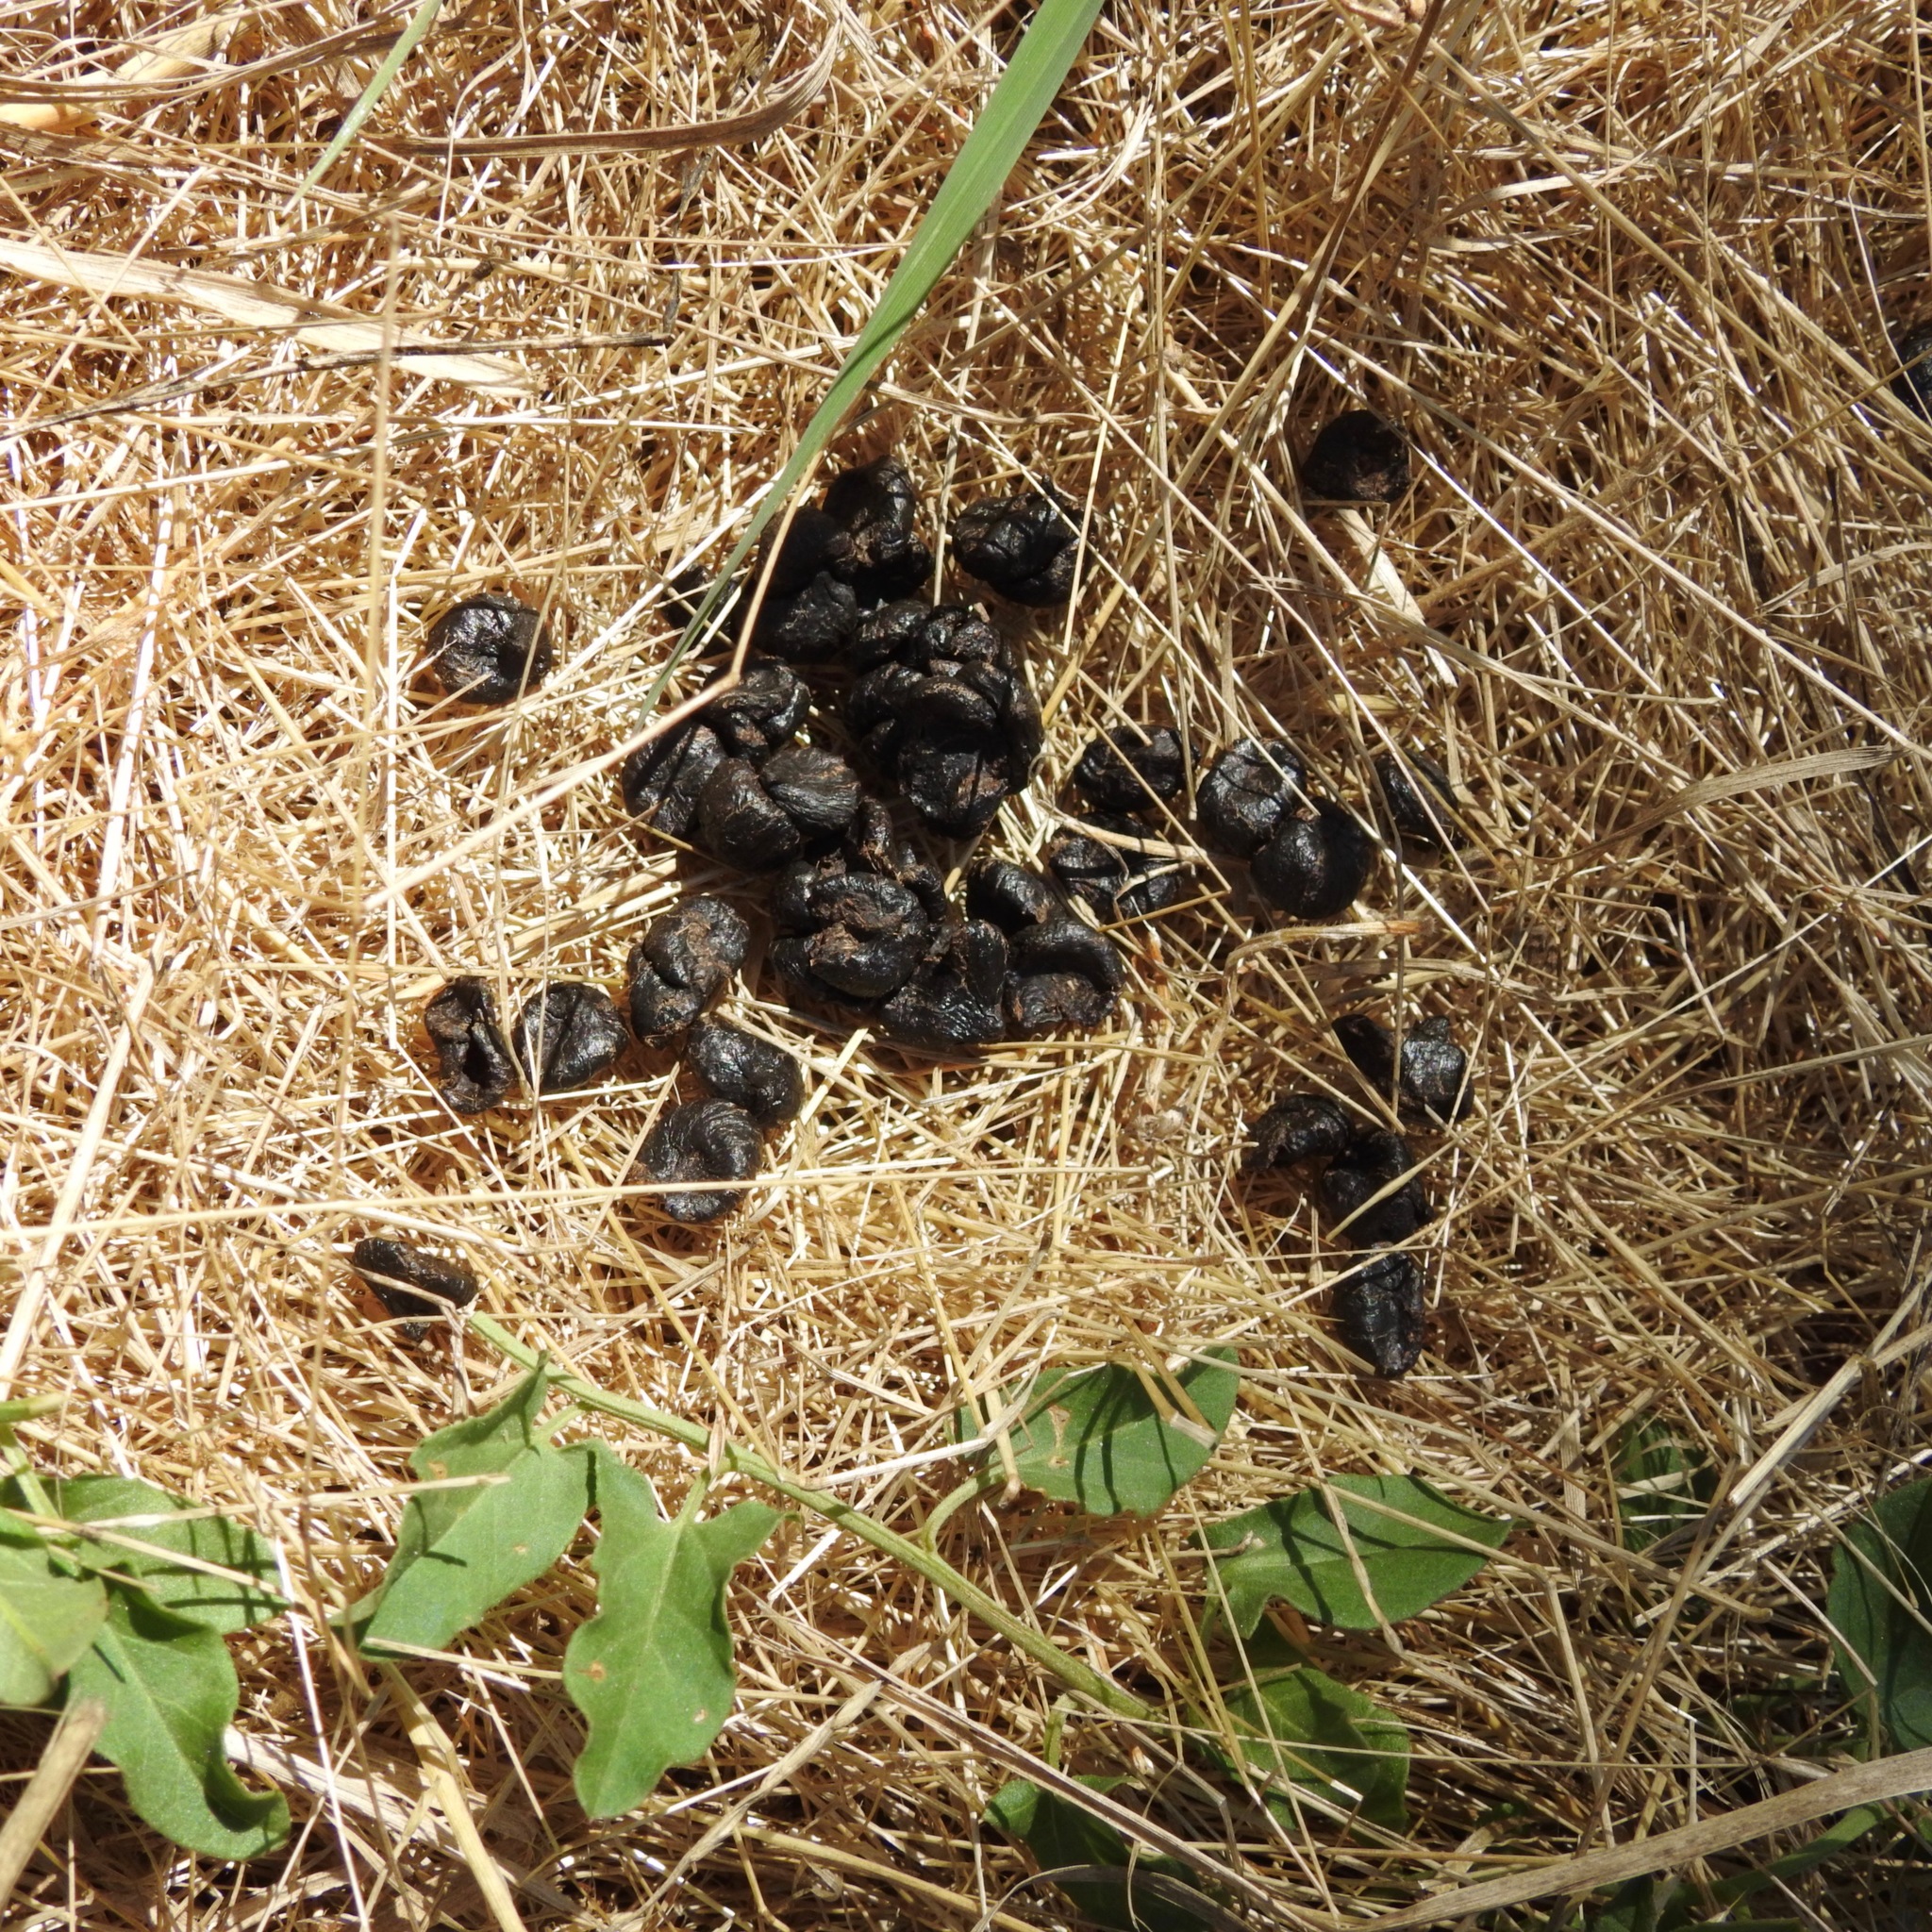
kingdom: Animalia
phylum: Chordata
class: Mammalia
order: Artiodactyla
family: Cervidae
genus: Odocoileus
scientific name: Odocoileus hemionus
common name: Mule deer
